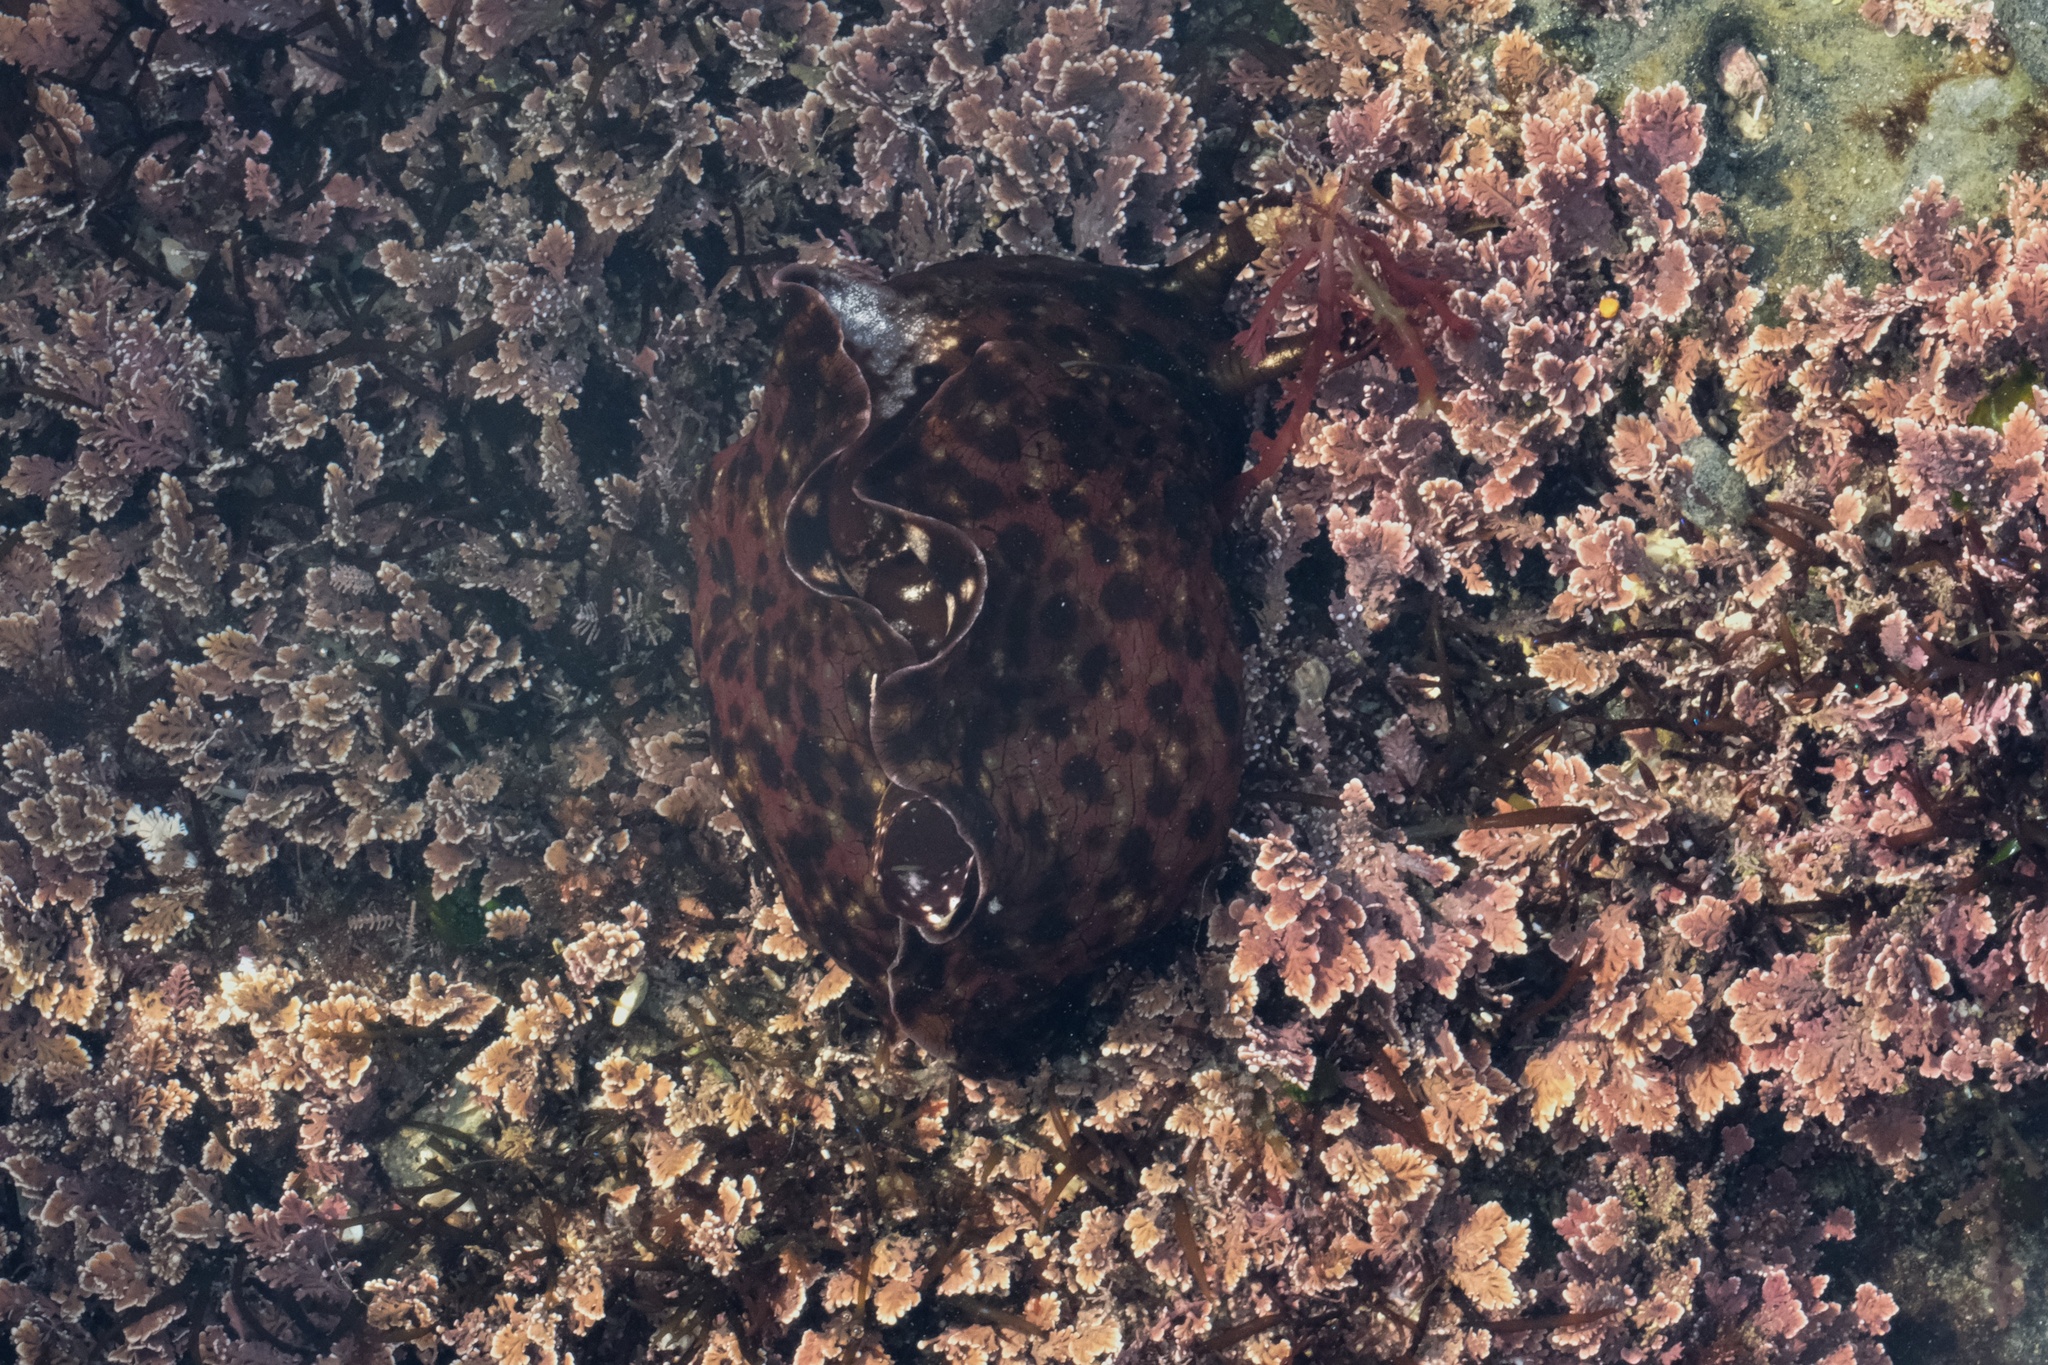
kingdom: Animalia
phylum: Mollusca
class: Gastropoda
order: Aplysiida
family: Aplysiidae
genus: Aplysia
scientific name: Aplysia californica
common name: California seahare
